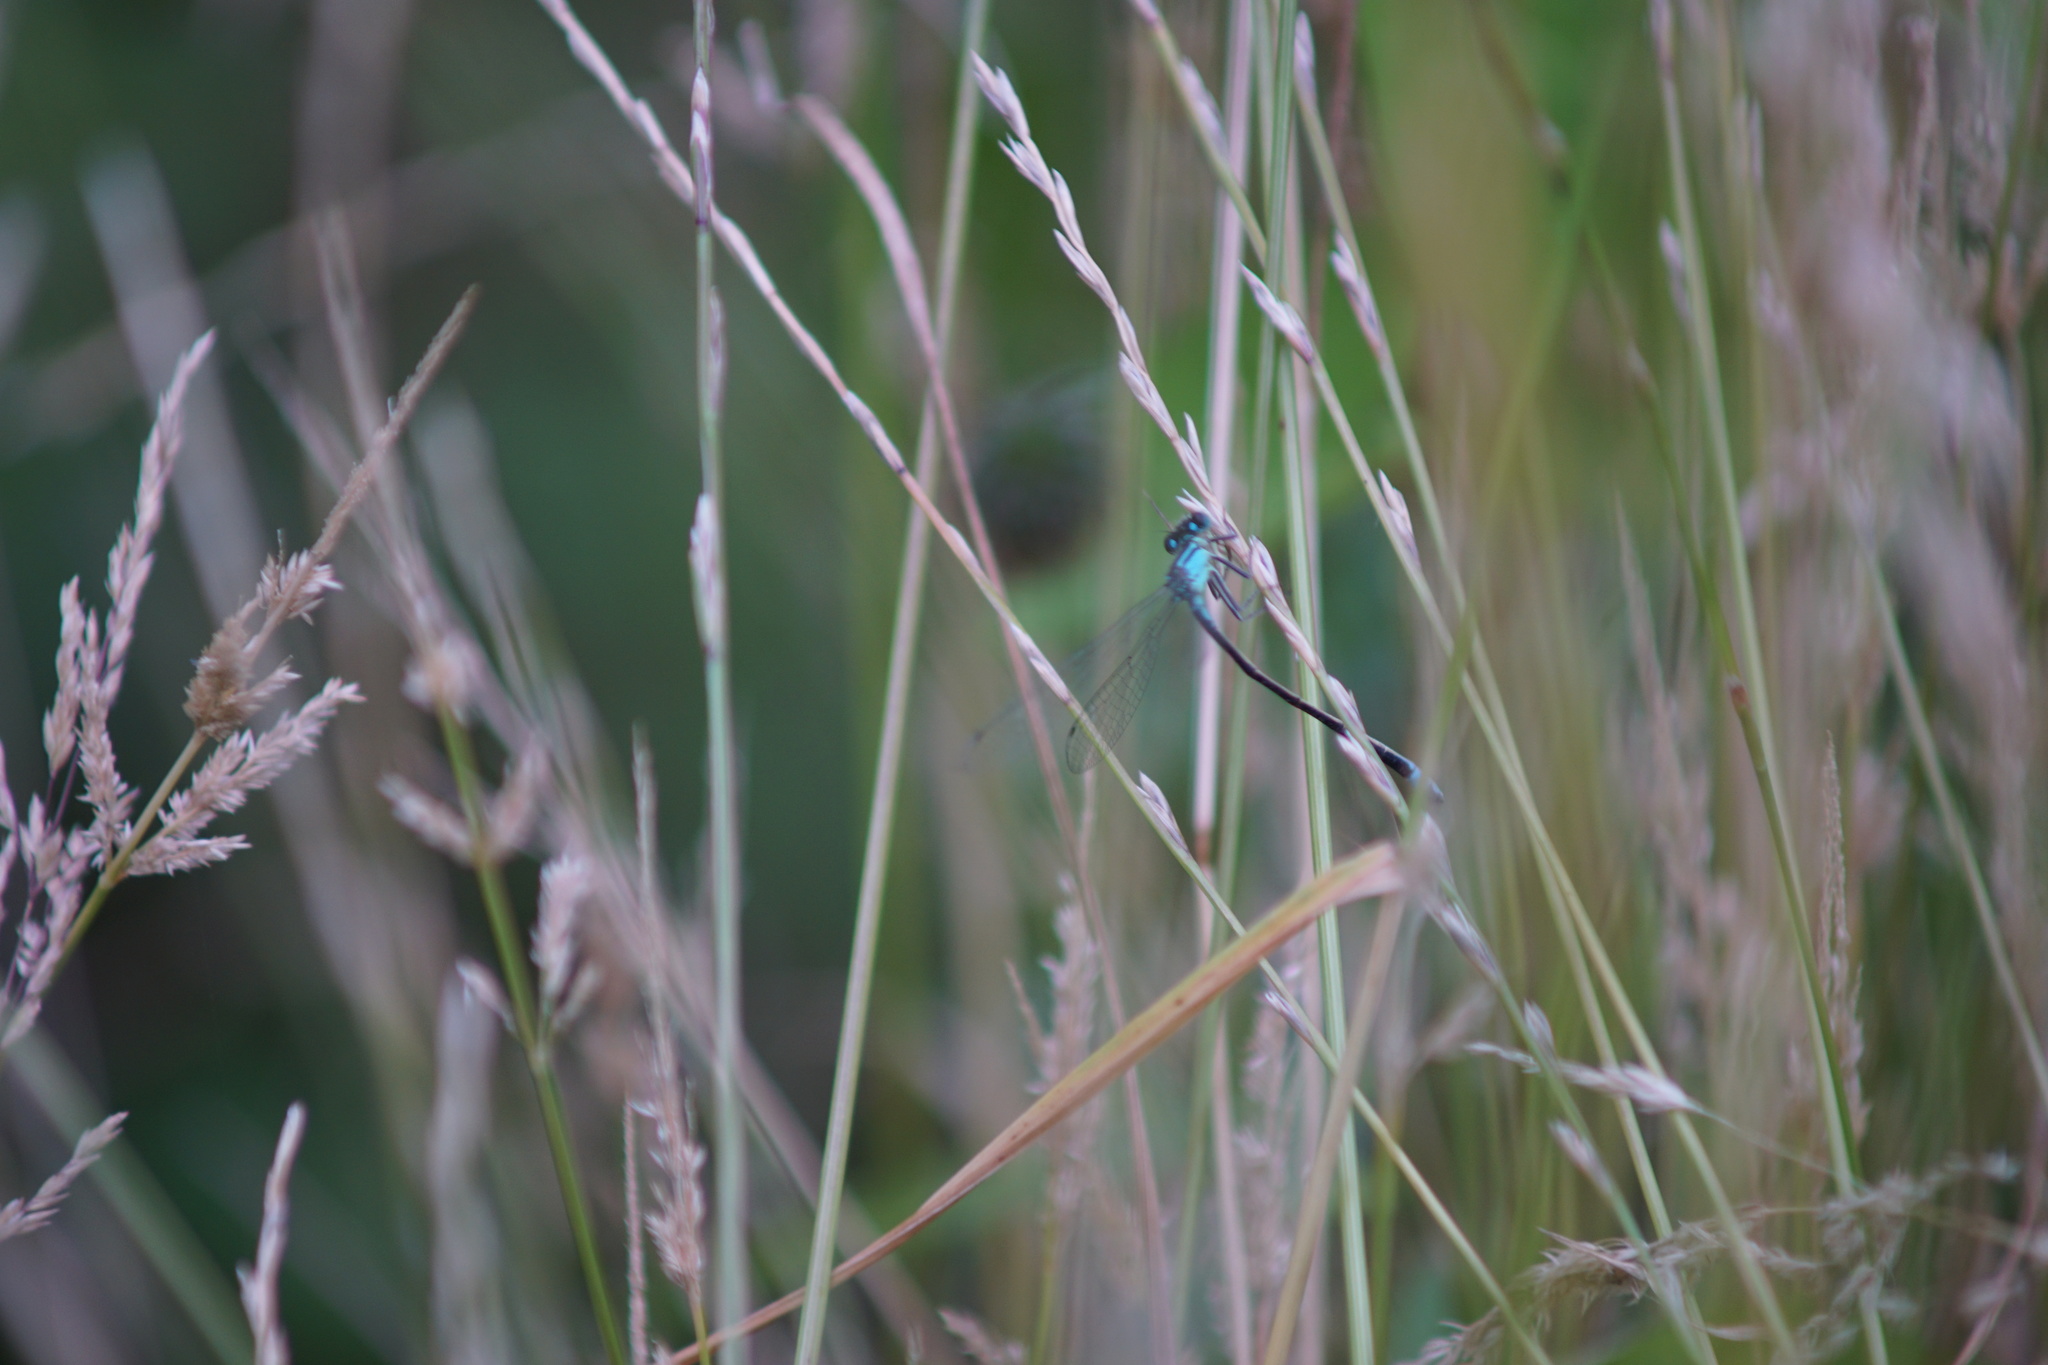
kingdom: Animalia
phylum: Arthropoda
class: Insecta
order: Odonata
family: Coenagrionidae
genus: Ischnura
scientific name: Ischnura elegans
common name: Blue-tailed damselfly
